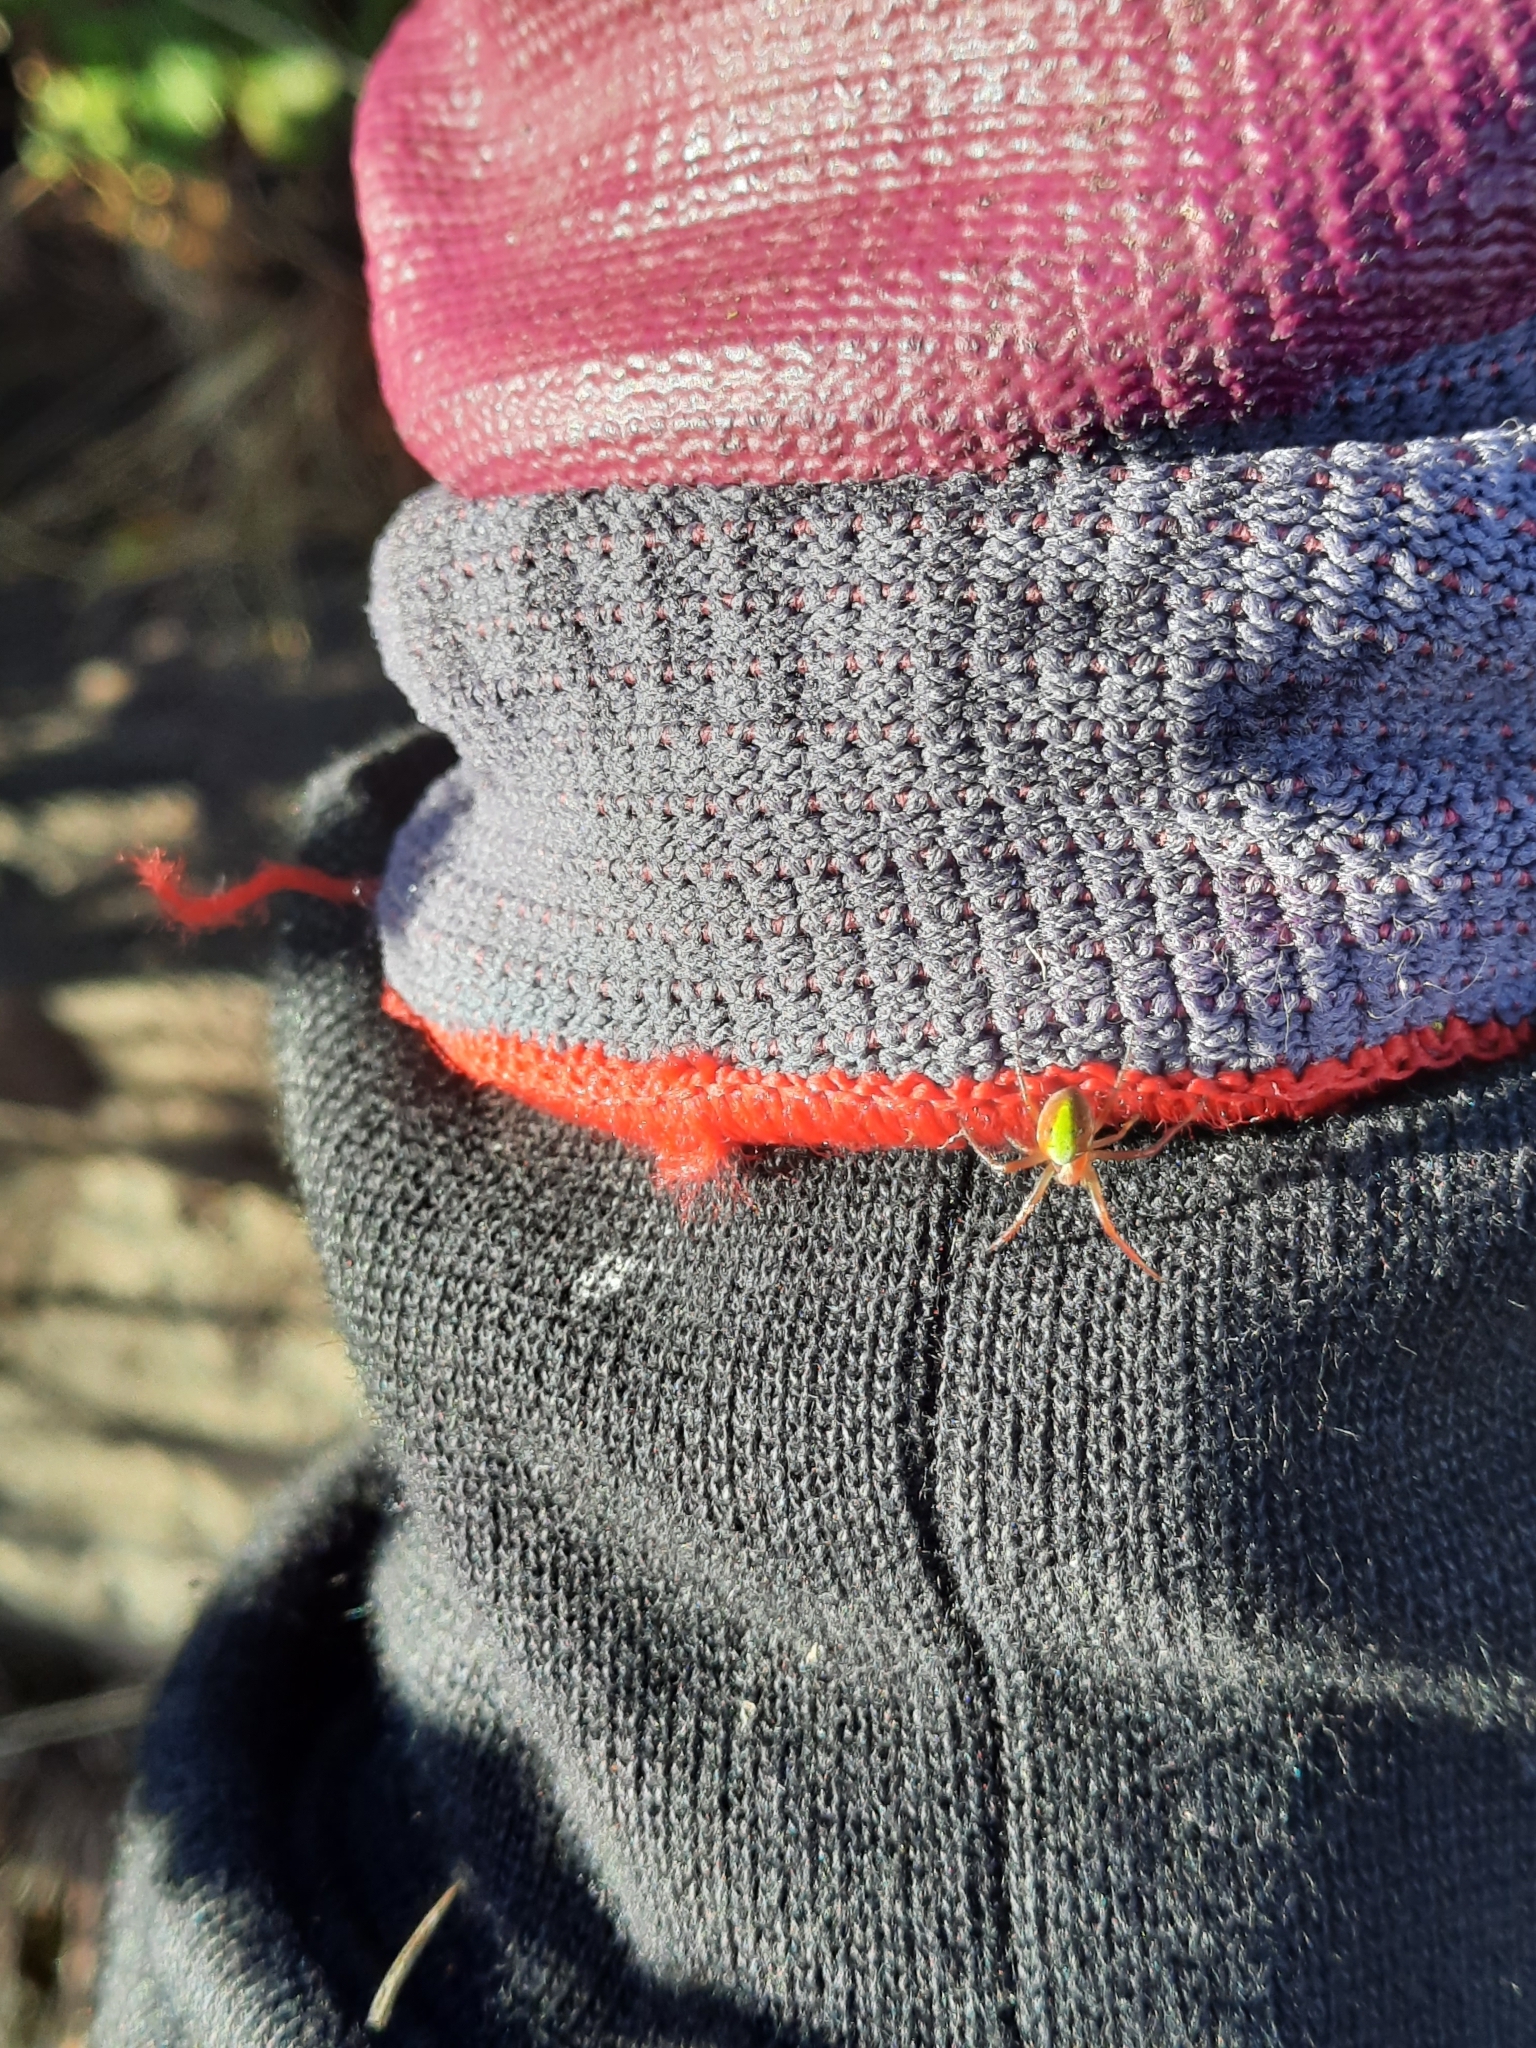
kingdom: Animalia
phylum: Arthropoda
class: Arachnida
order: Araneae
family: Araneidae
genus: Novaranea
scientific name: Novaranea queribunda
